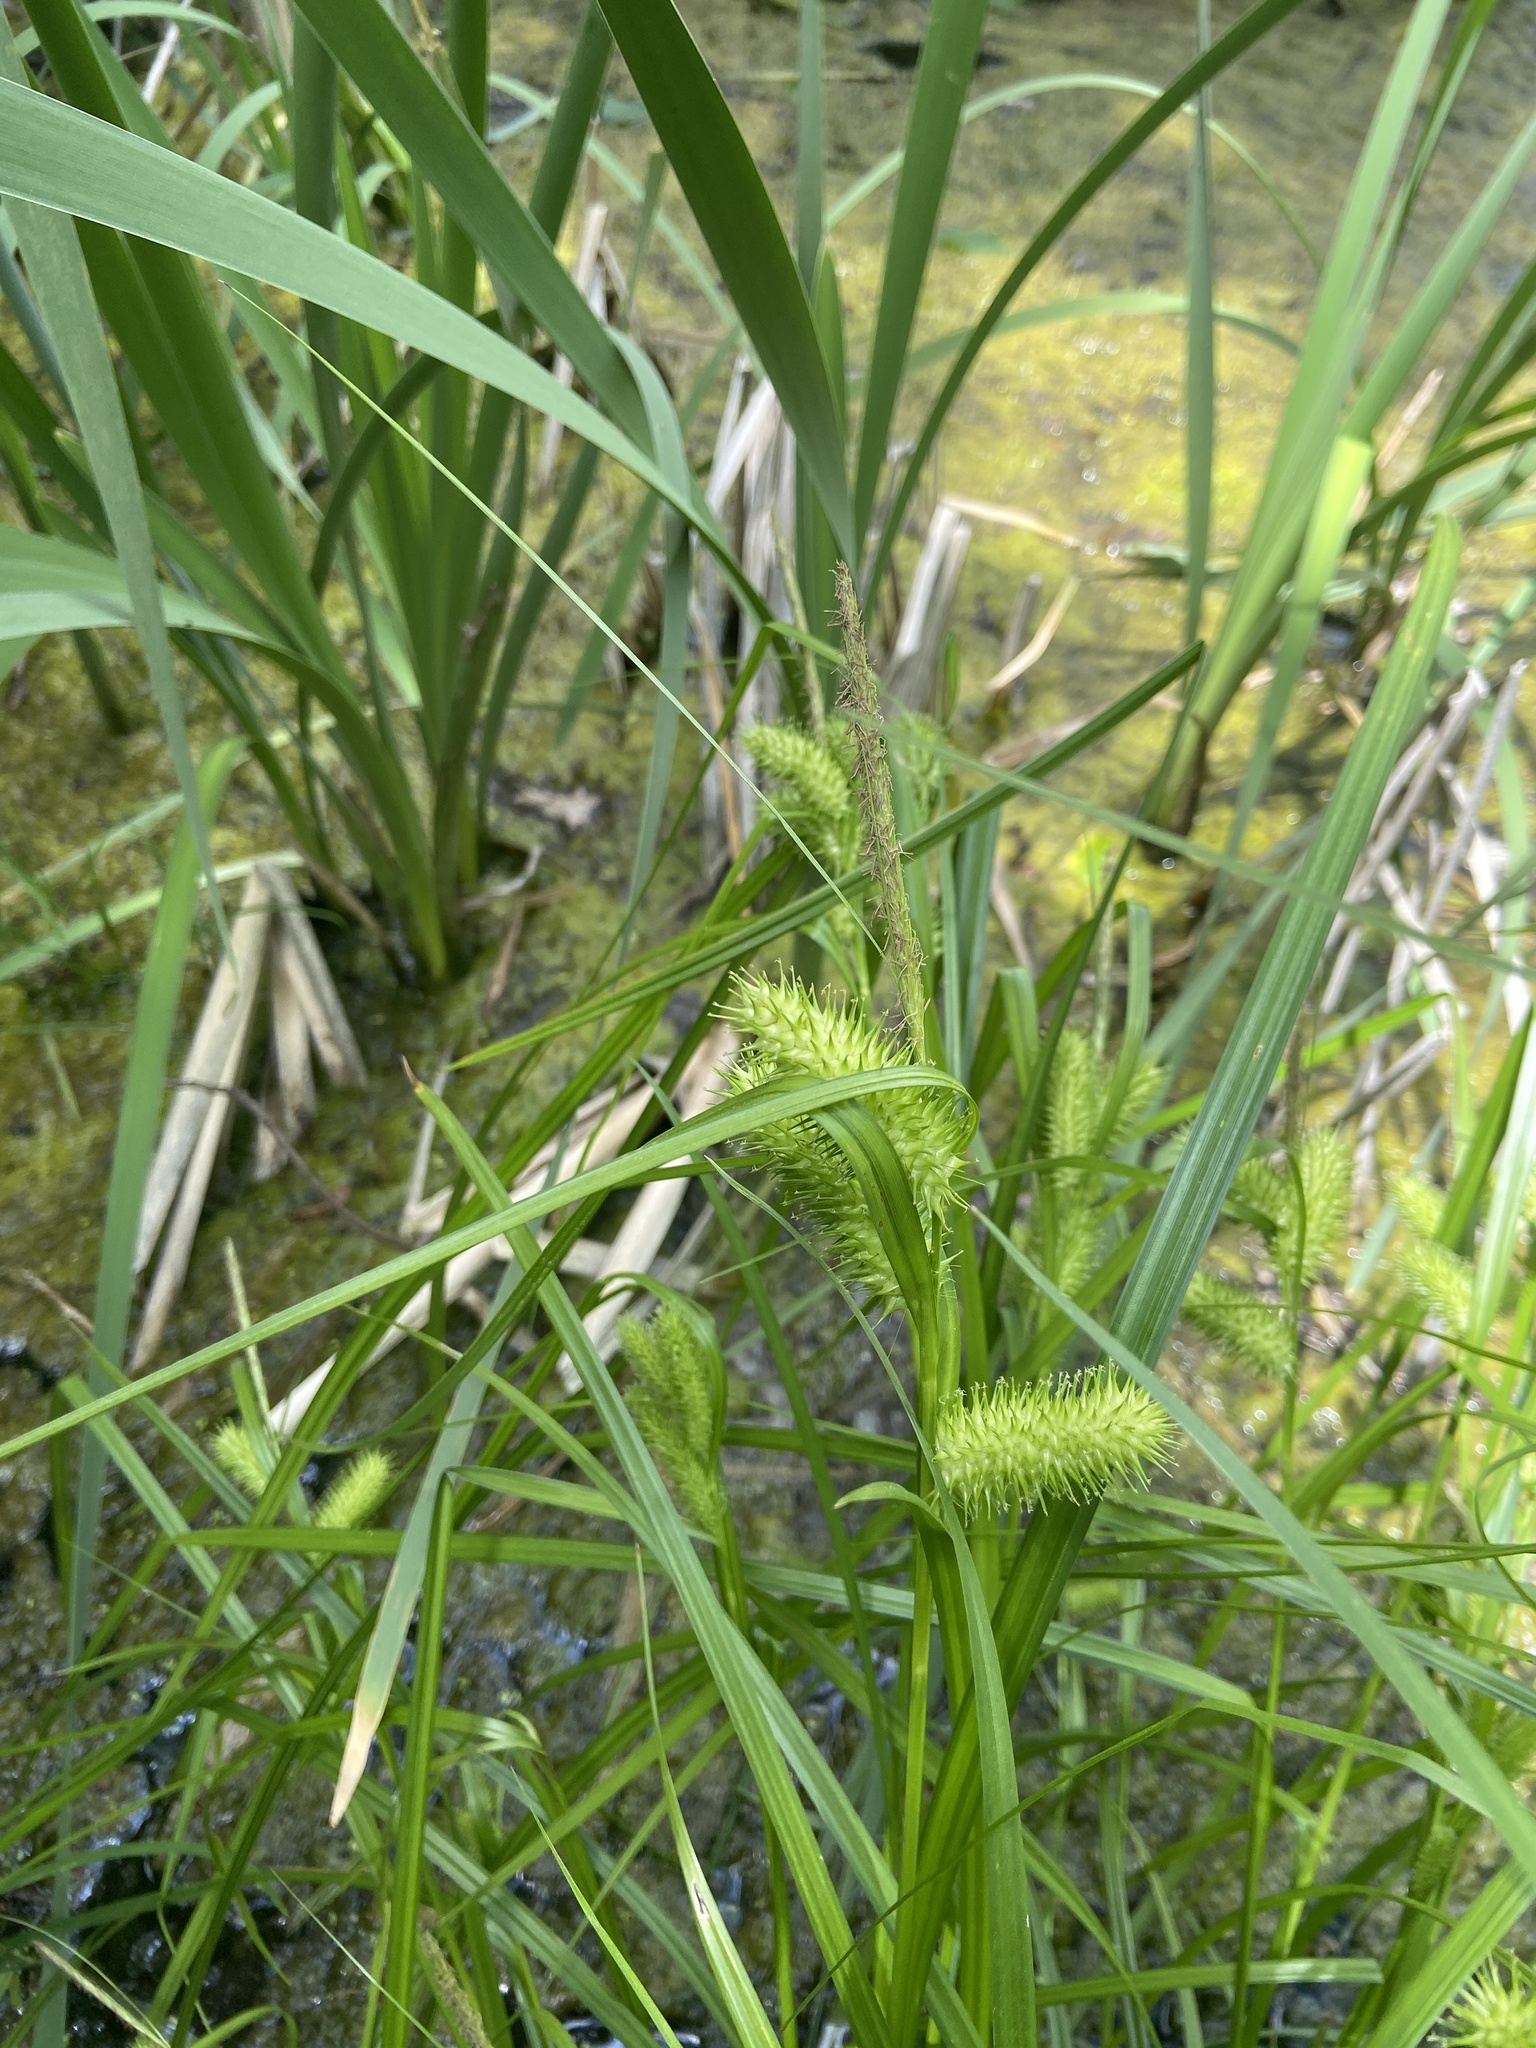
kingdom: Plantae
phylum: Tracheophyta
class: Liliopsida
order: Poales
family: Cyperaceae
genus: Carex
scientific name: Carex lurida
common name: Sallow sedge
